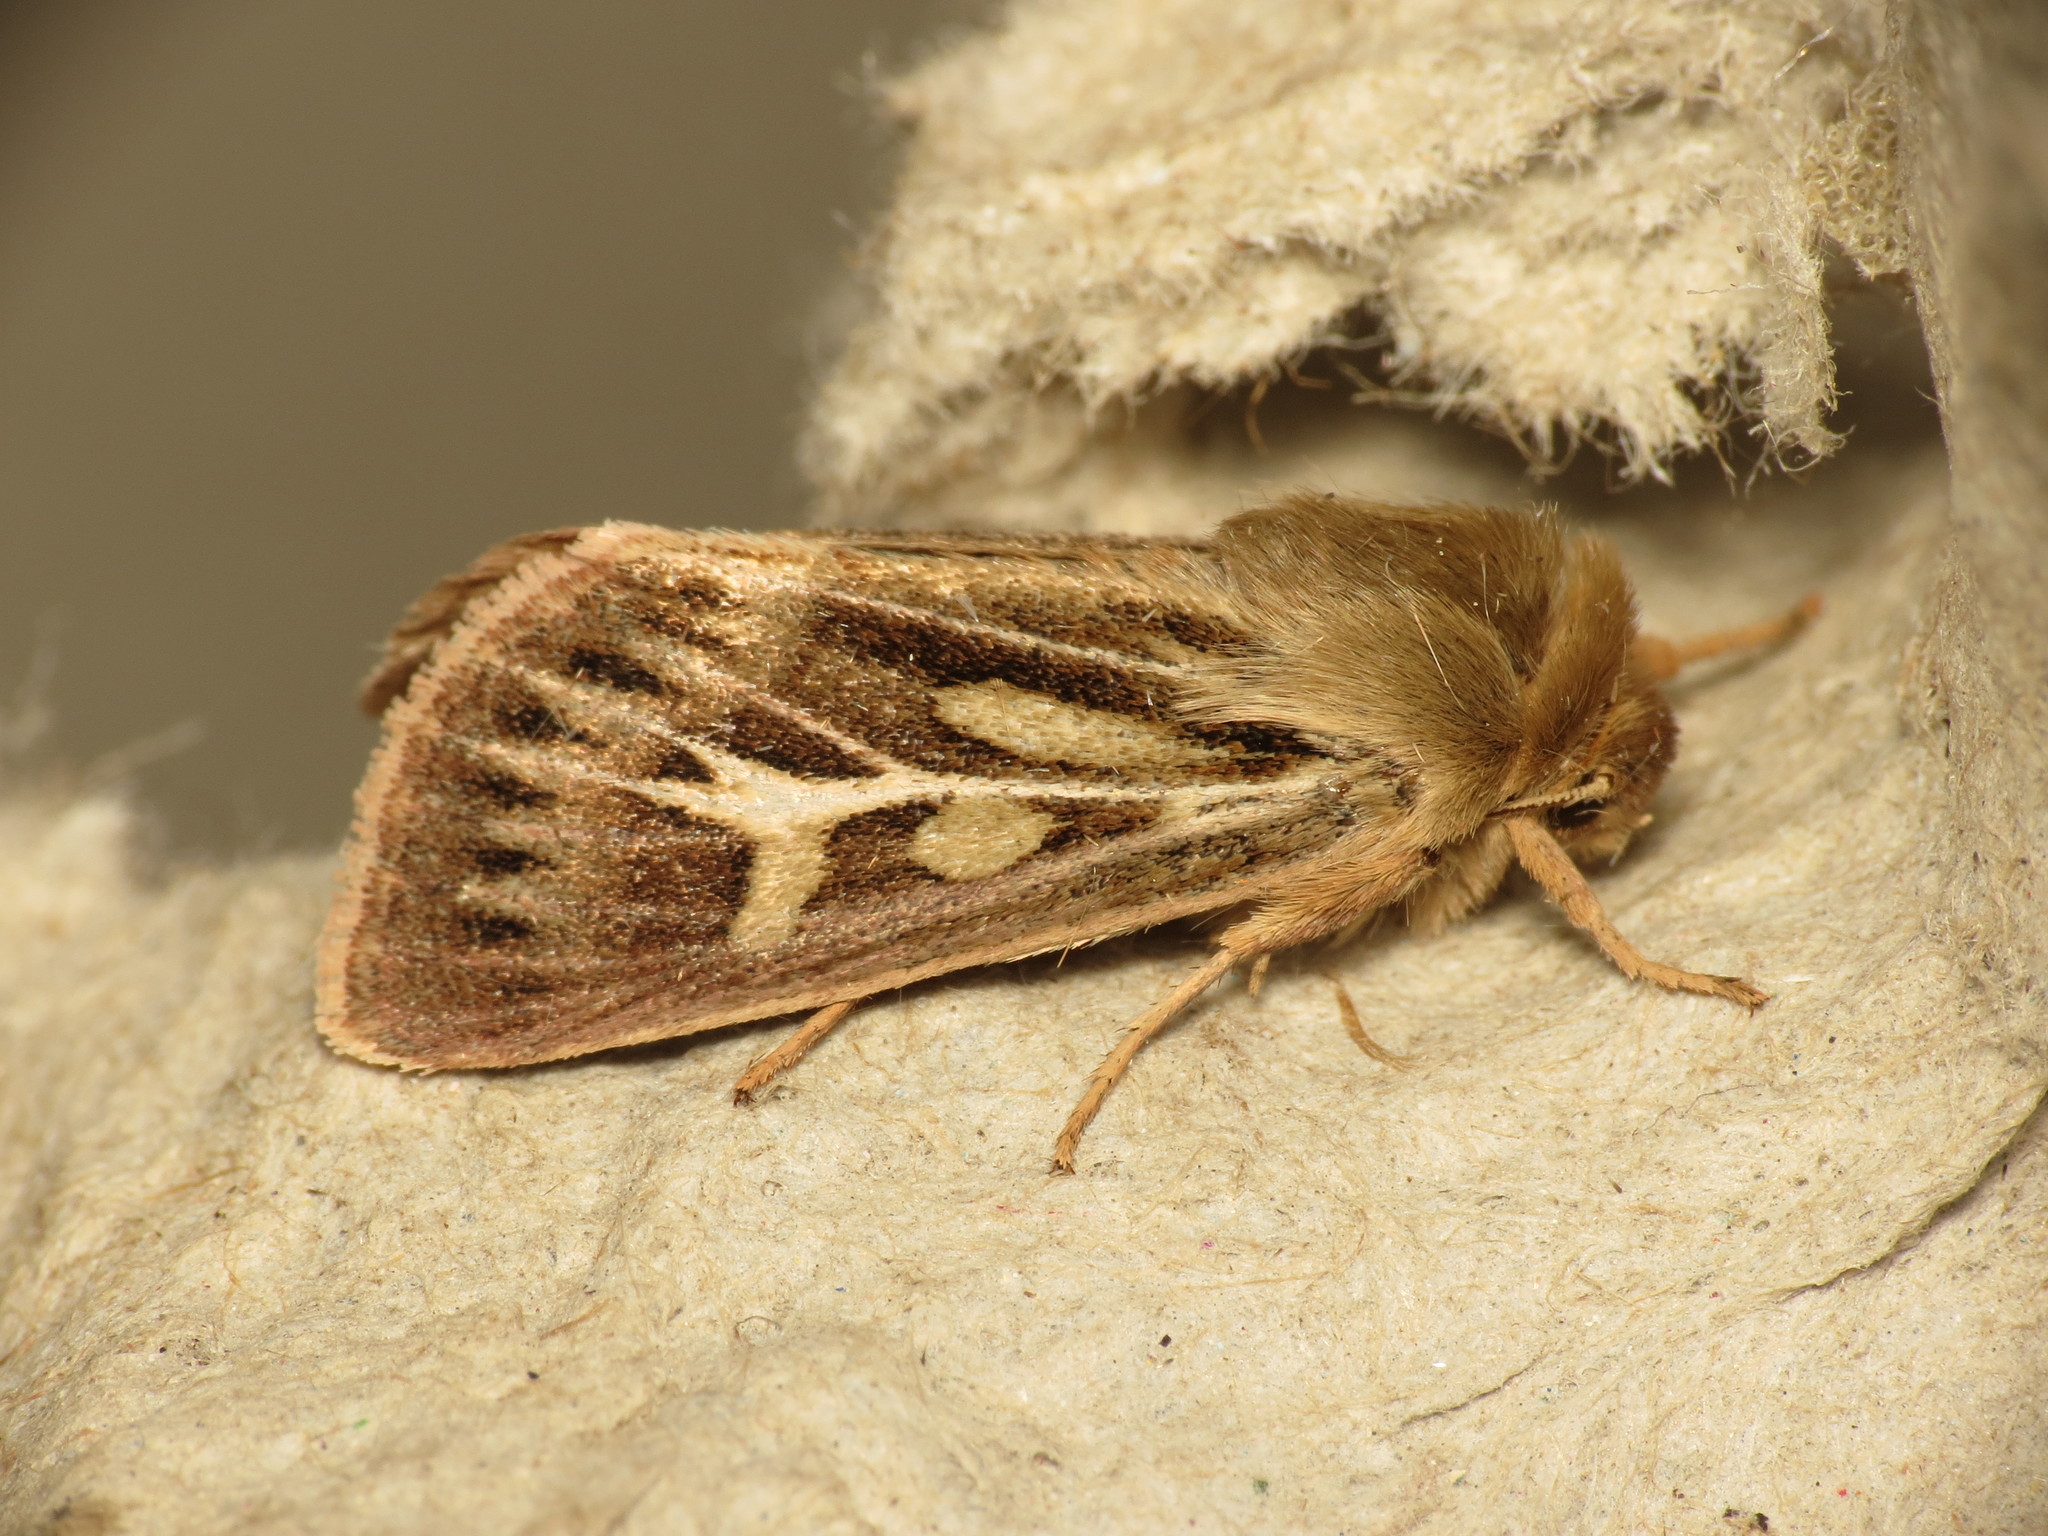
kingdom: Animalia
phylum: Arthropoda
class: Insecta
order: Lepidoptera
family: Noctuidae
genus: Cerapteryx
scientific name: Cerapteryx graminis
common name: Antler moth
